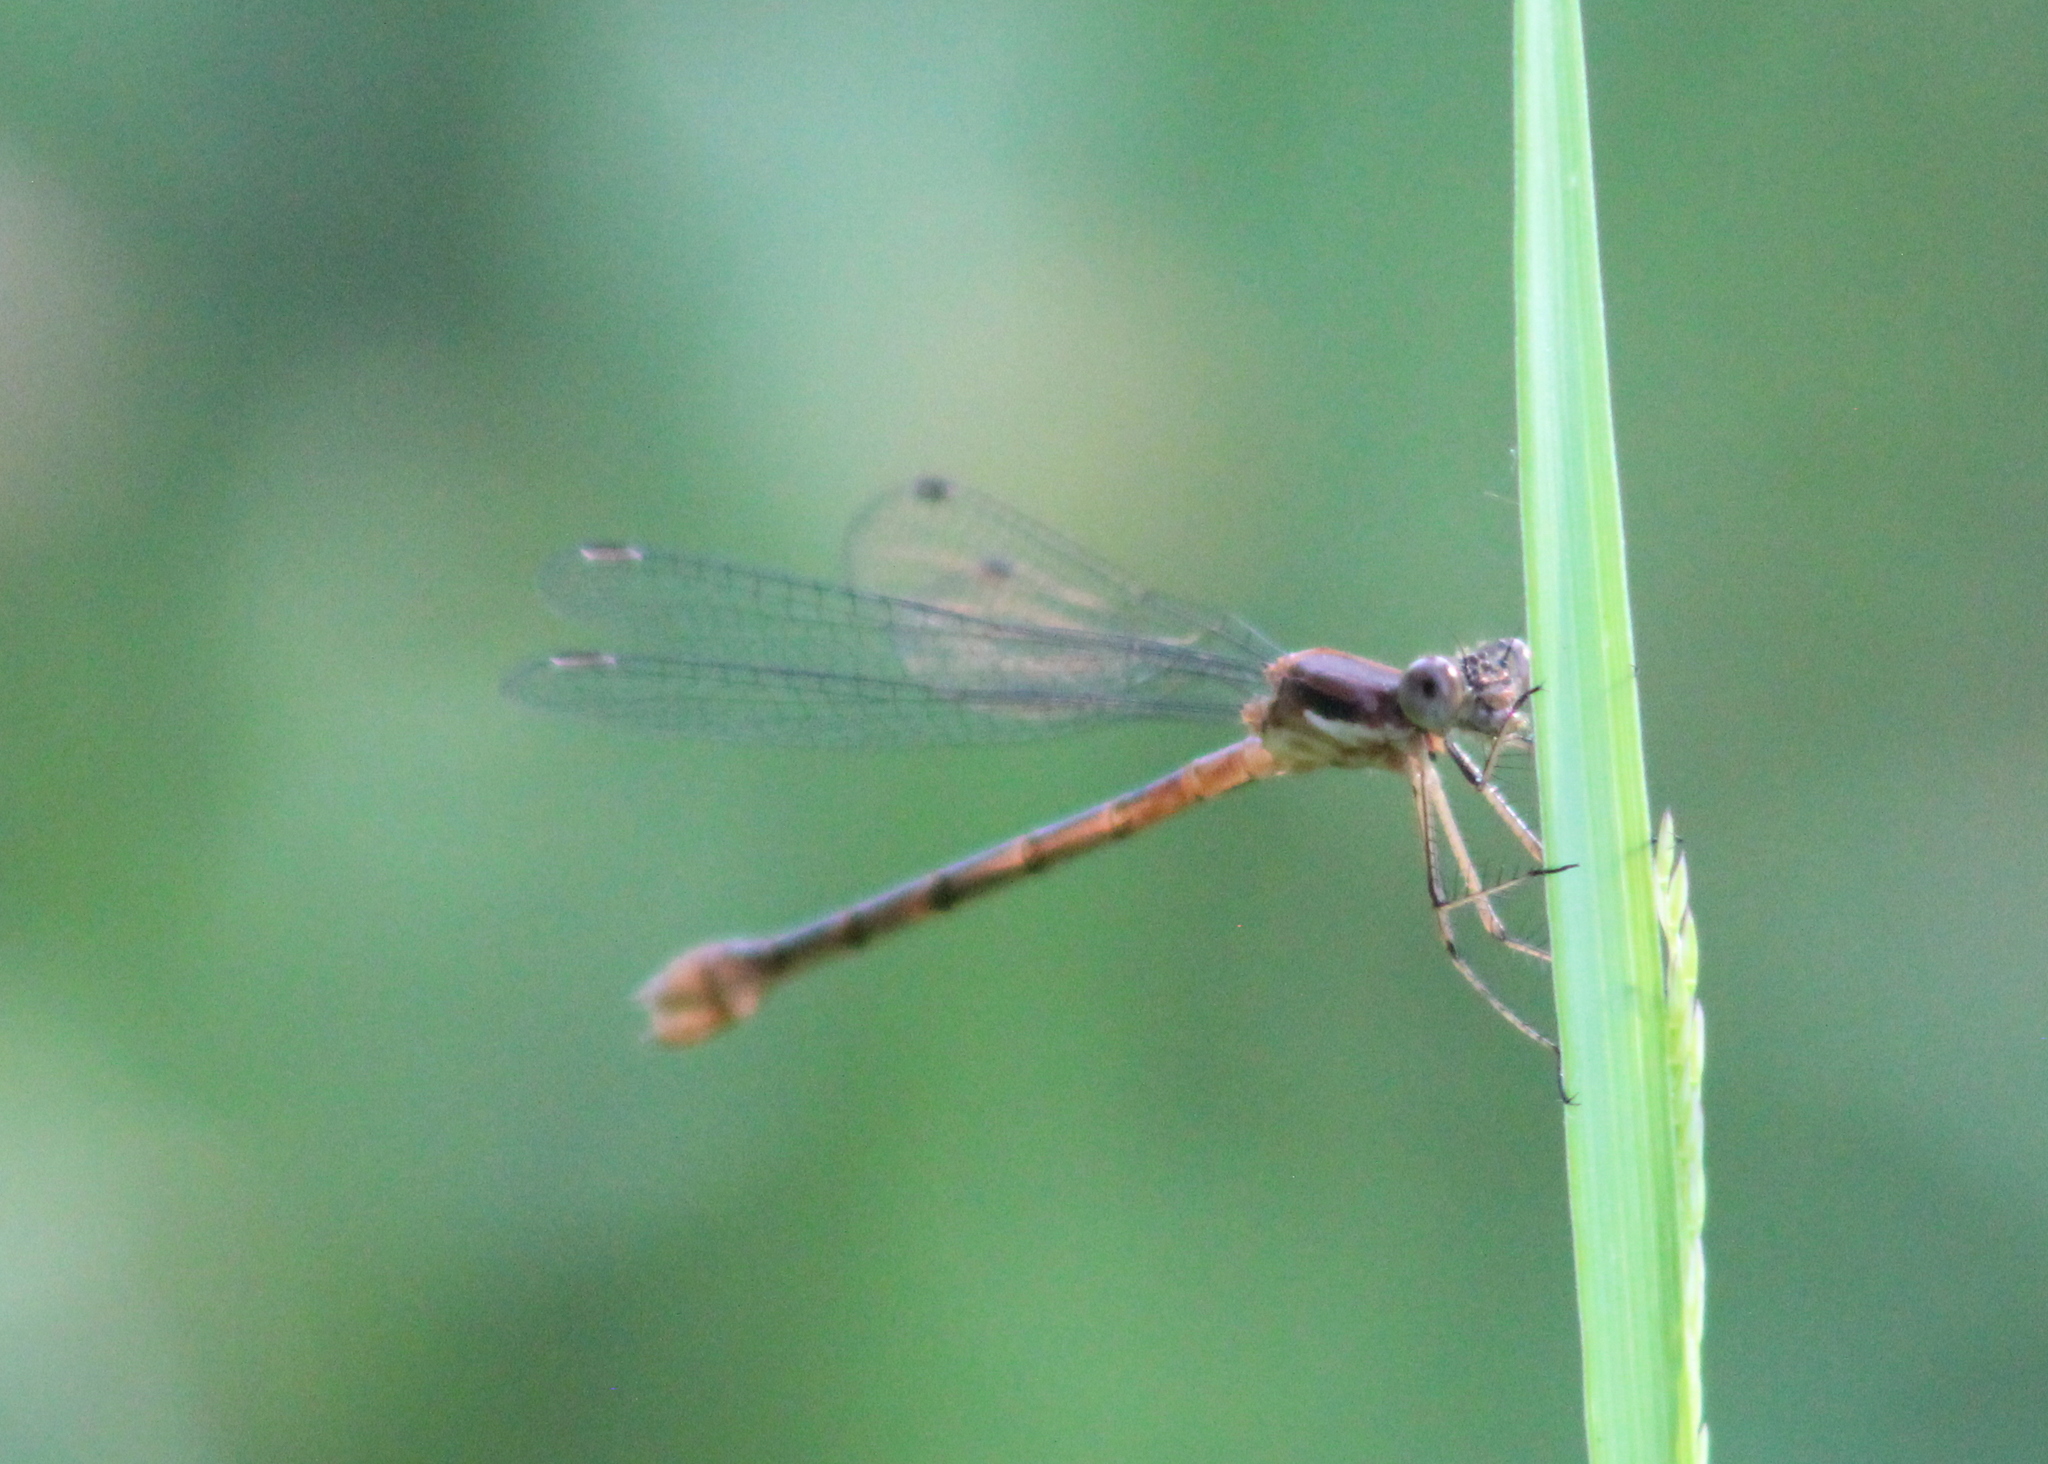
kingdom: Animalia
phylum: Arthropoda
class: Insecta
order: Odonata
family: Lestidae
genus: Lestes
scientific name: Lestes forcipatus
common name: Sweetflag spreadwing
